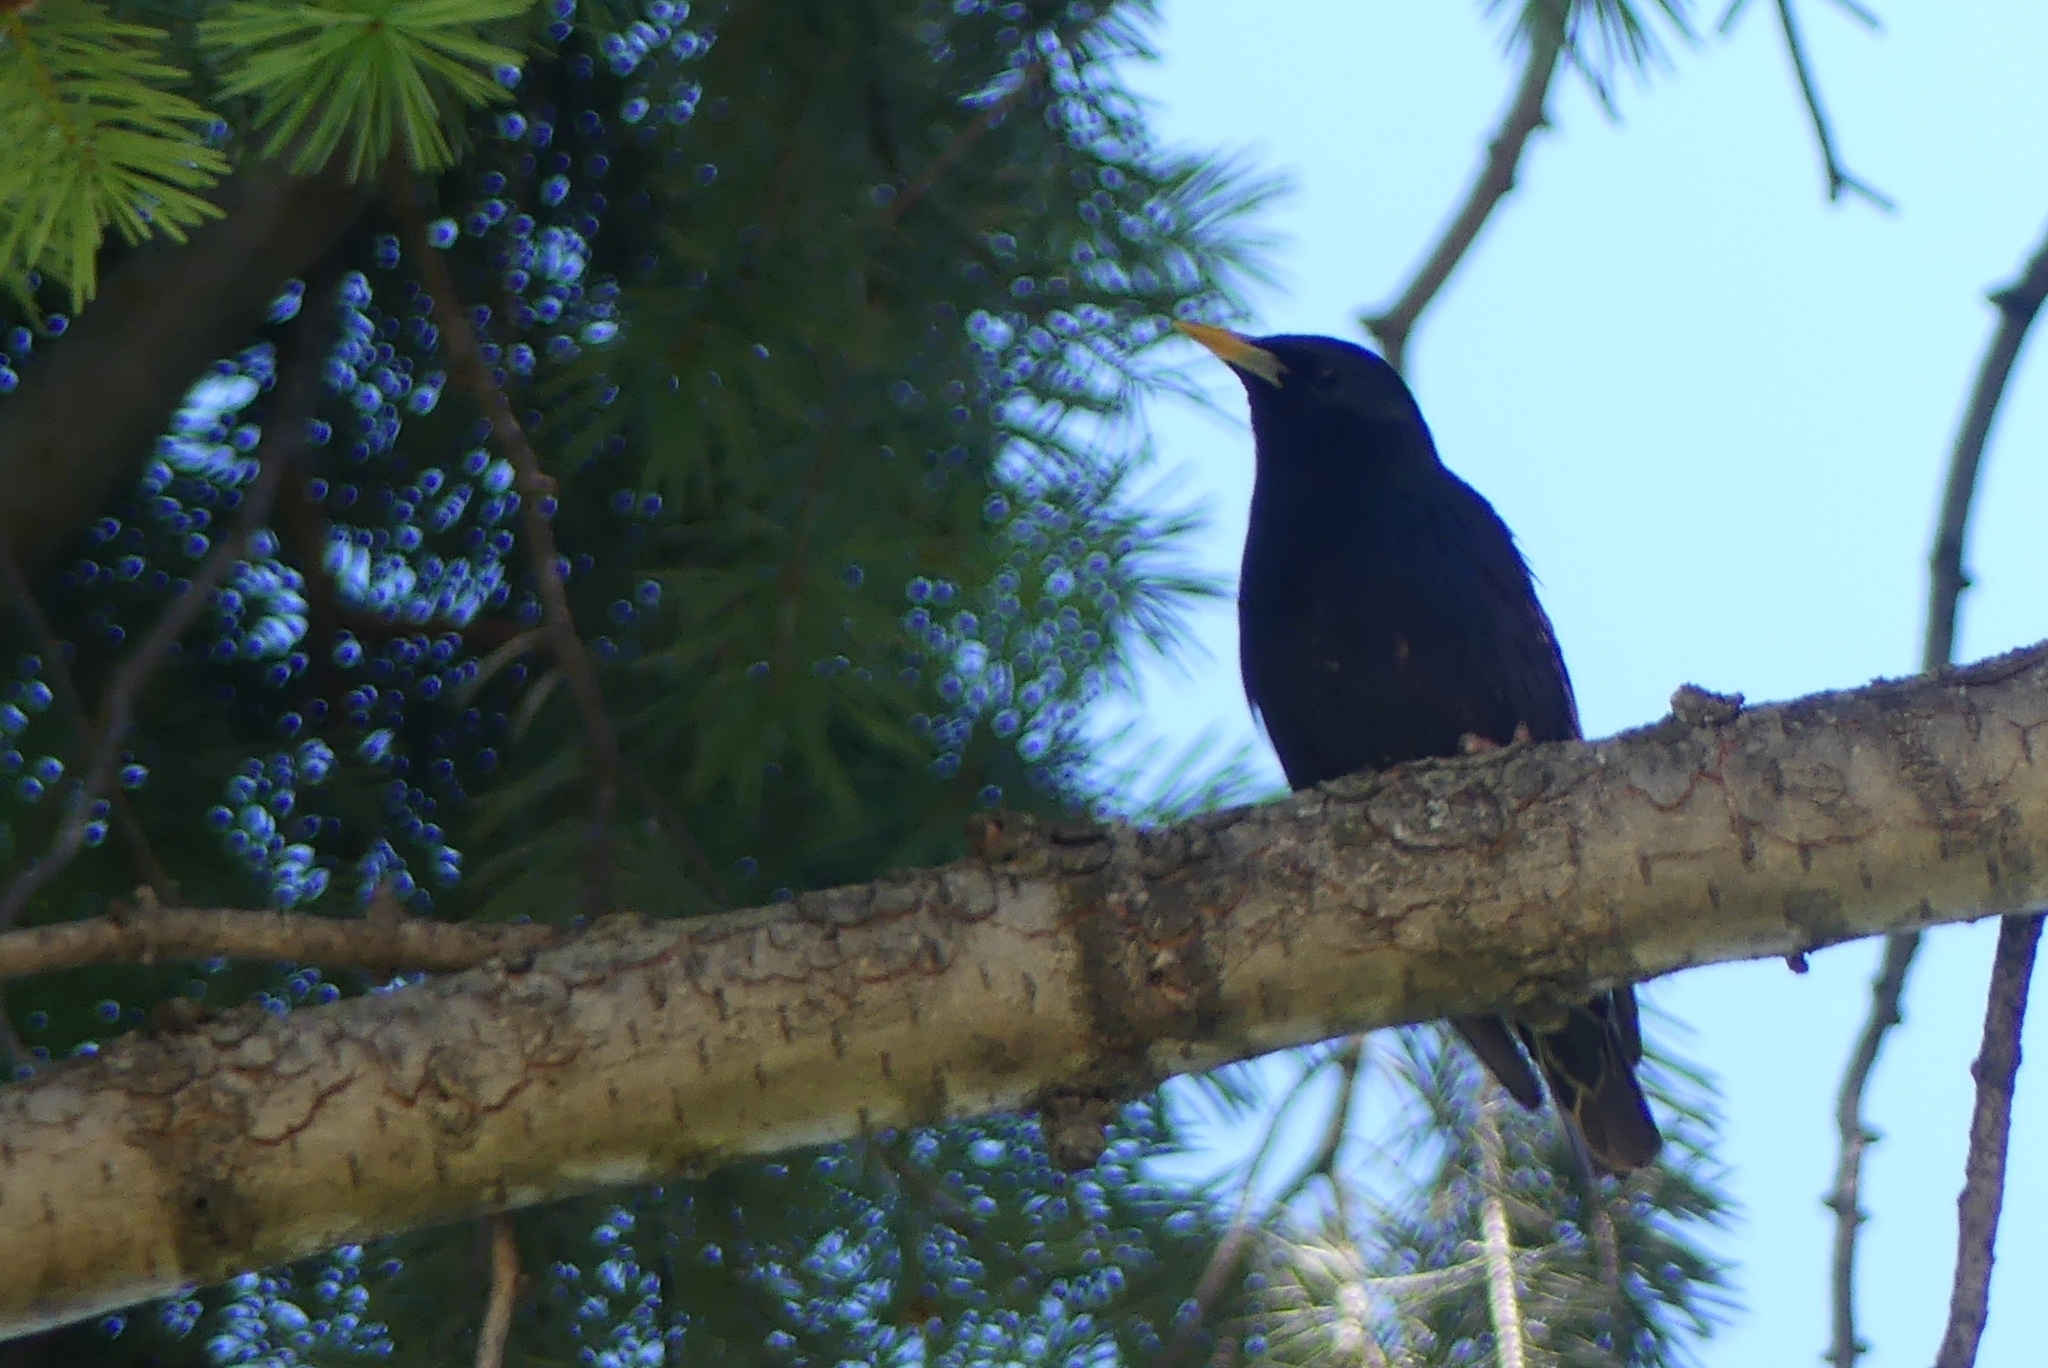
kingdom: Animalia
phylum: Chordata
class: Aves
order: Passeriformes
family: Sturnidae
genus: Sturnus
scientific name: Sturnus vulgaris
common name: Common starling
